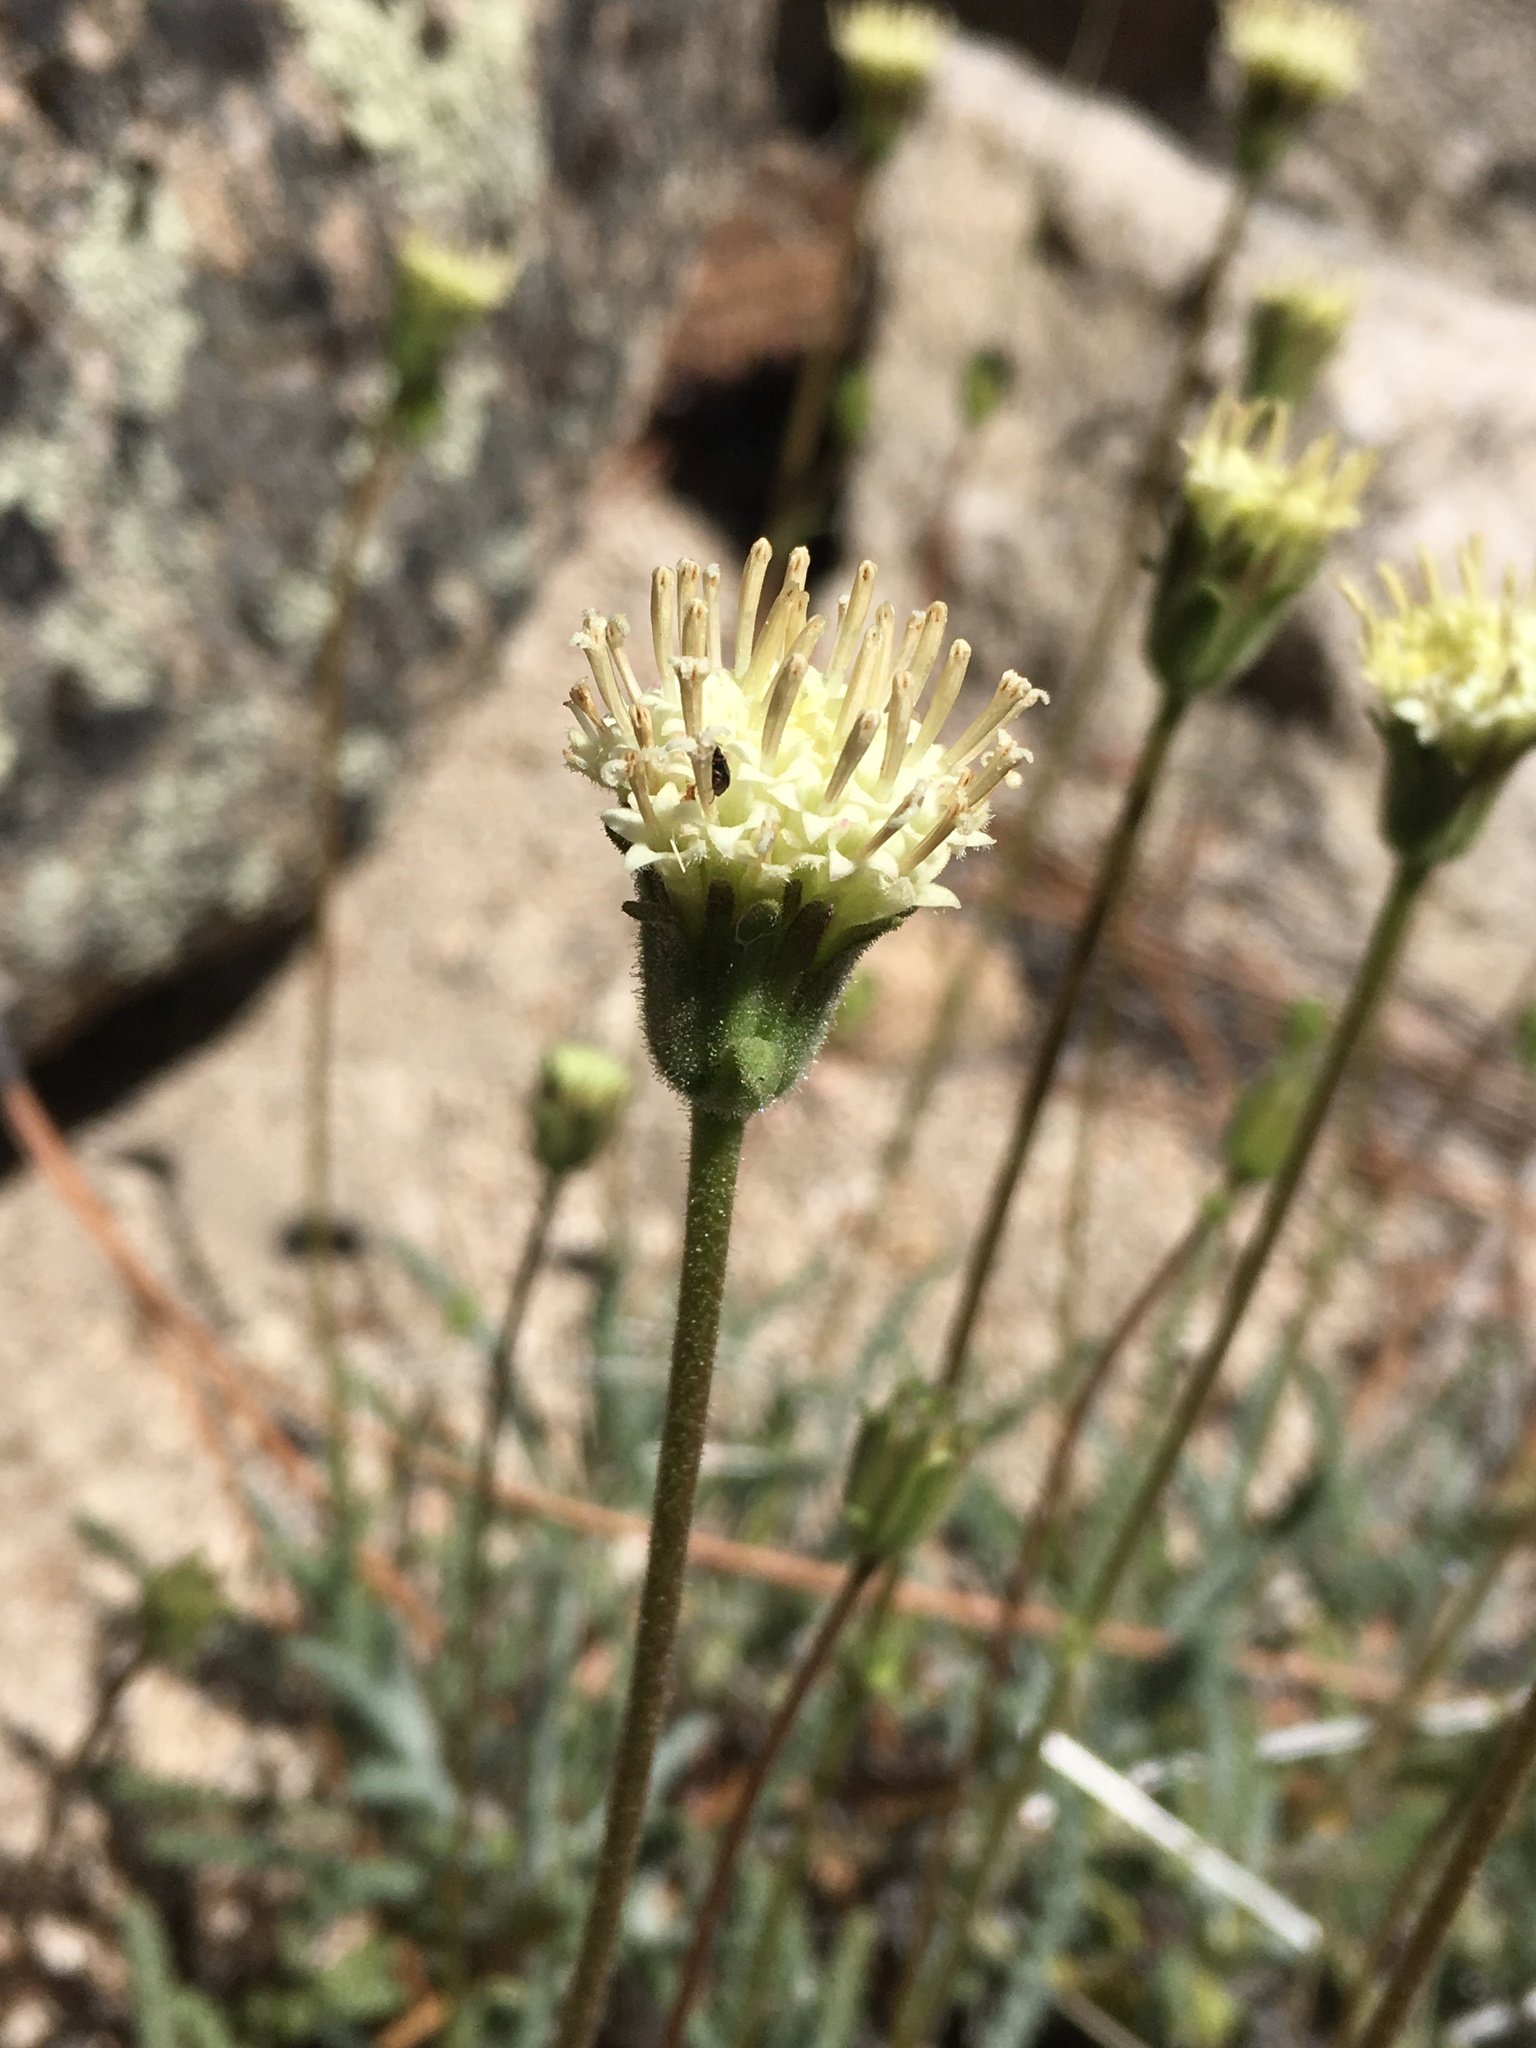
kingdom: Plantae
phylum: Tracheophyta
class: Magnoliopsida
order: Asterales
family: Asteraceae
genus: Chaenactis
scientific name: Chaenactis santolinoides
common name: Santolina pincushion
